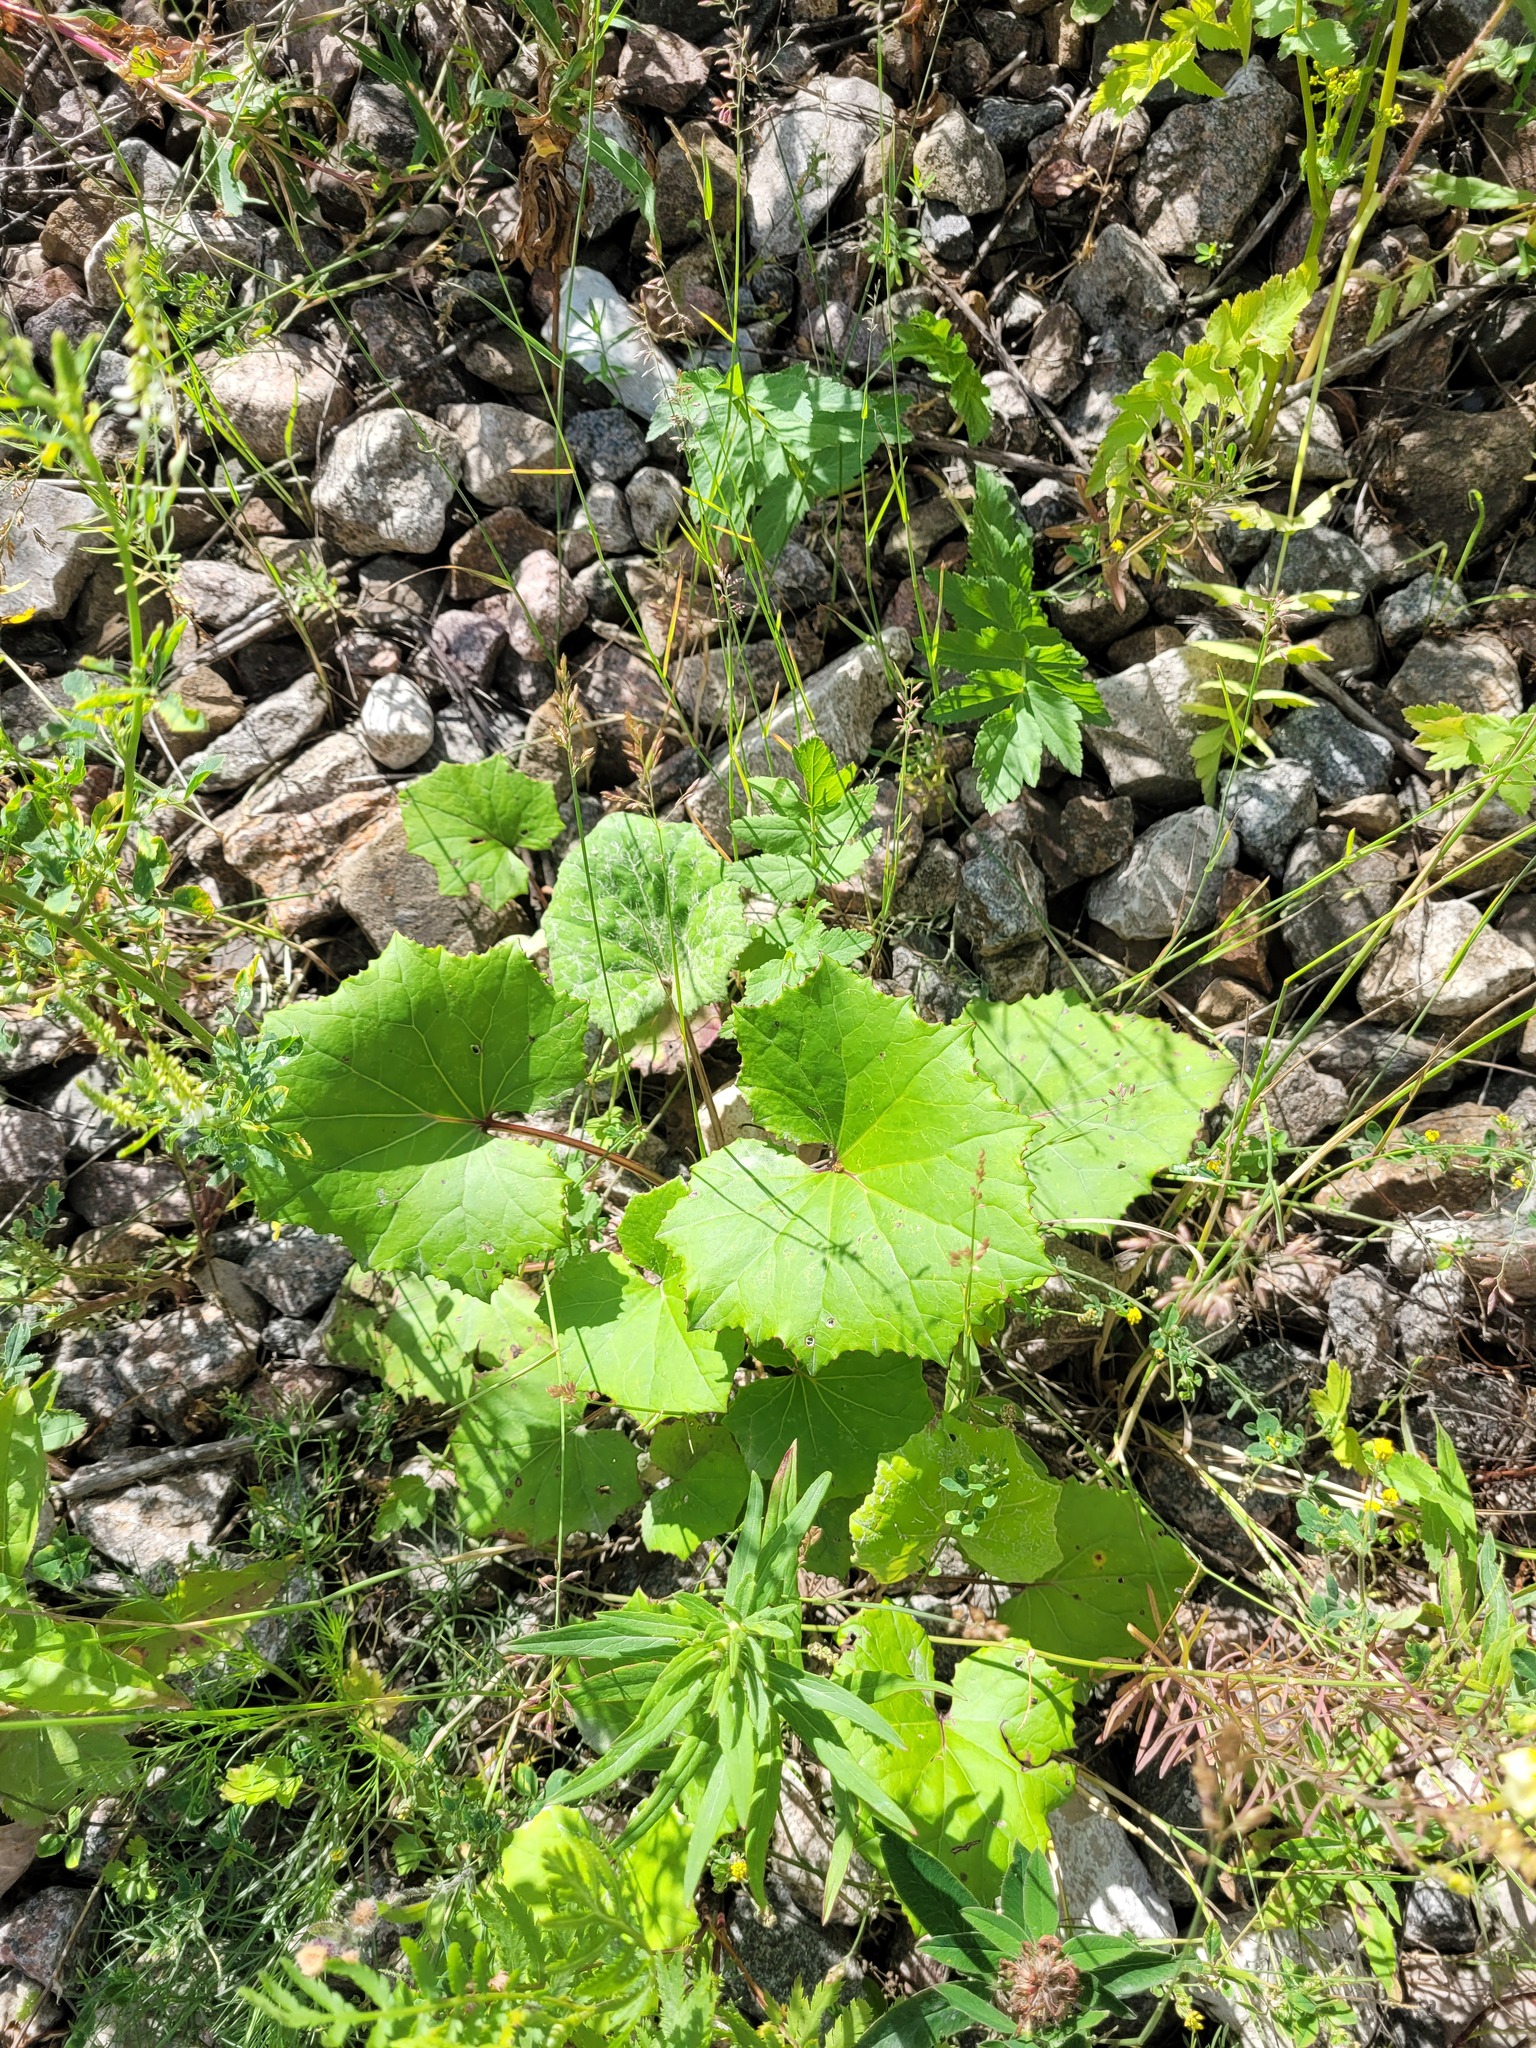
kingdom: Plantae
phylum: Tracheophyta
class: Magnoliopsida
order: Asterales
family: Asteraceae
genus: Tussilago
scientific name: Tussilago farfara
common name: Coltsfoot
